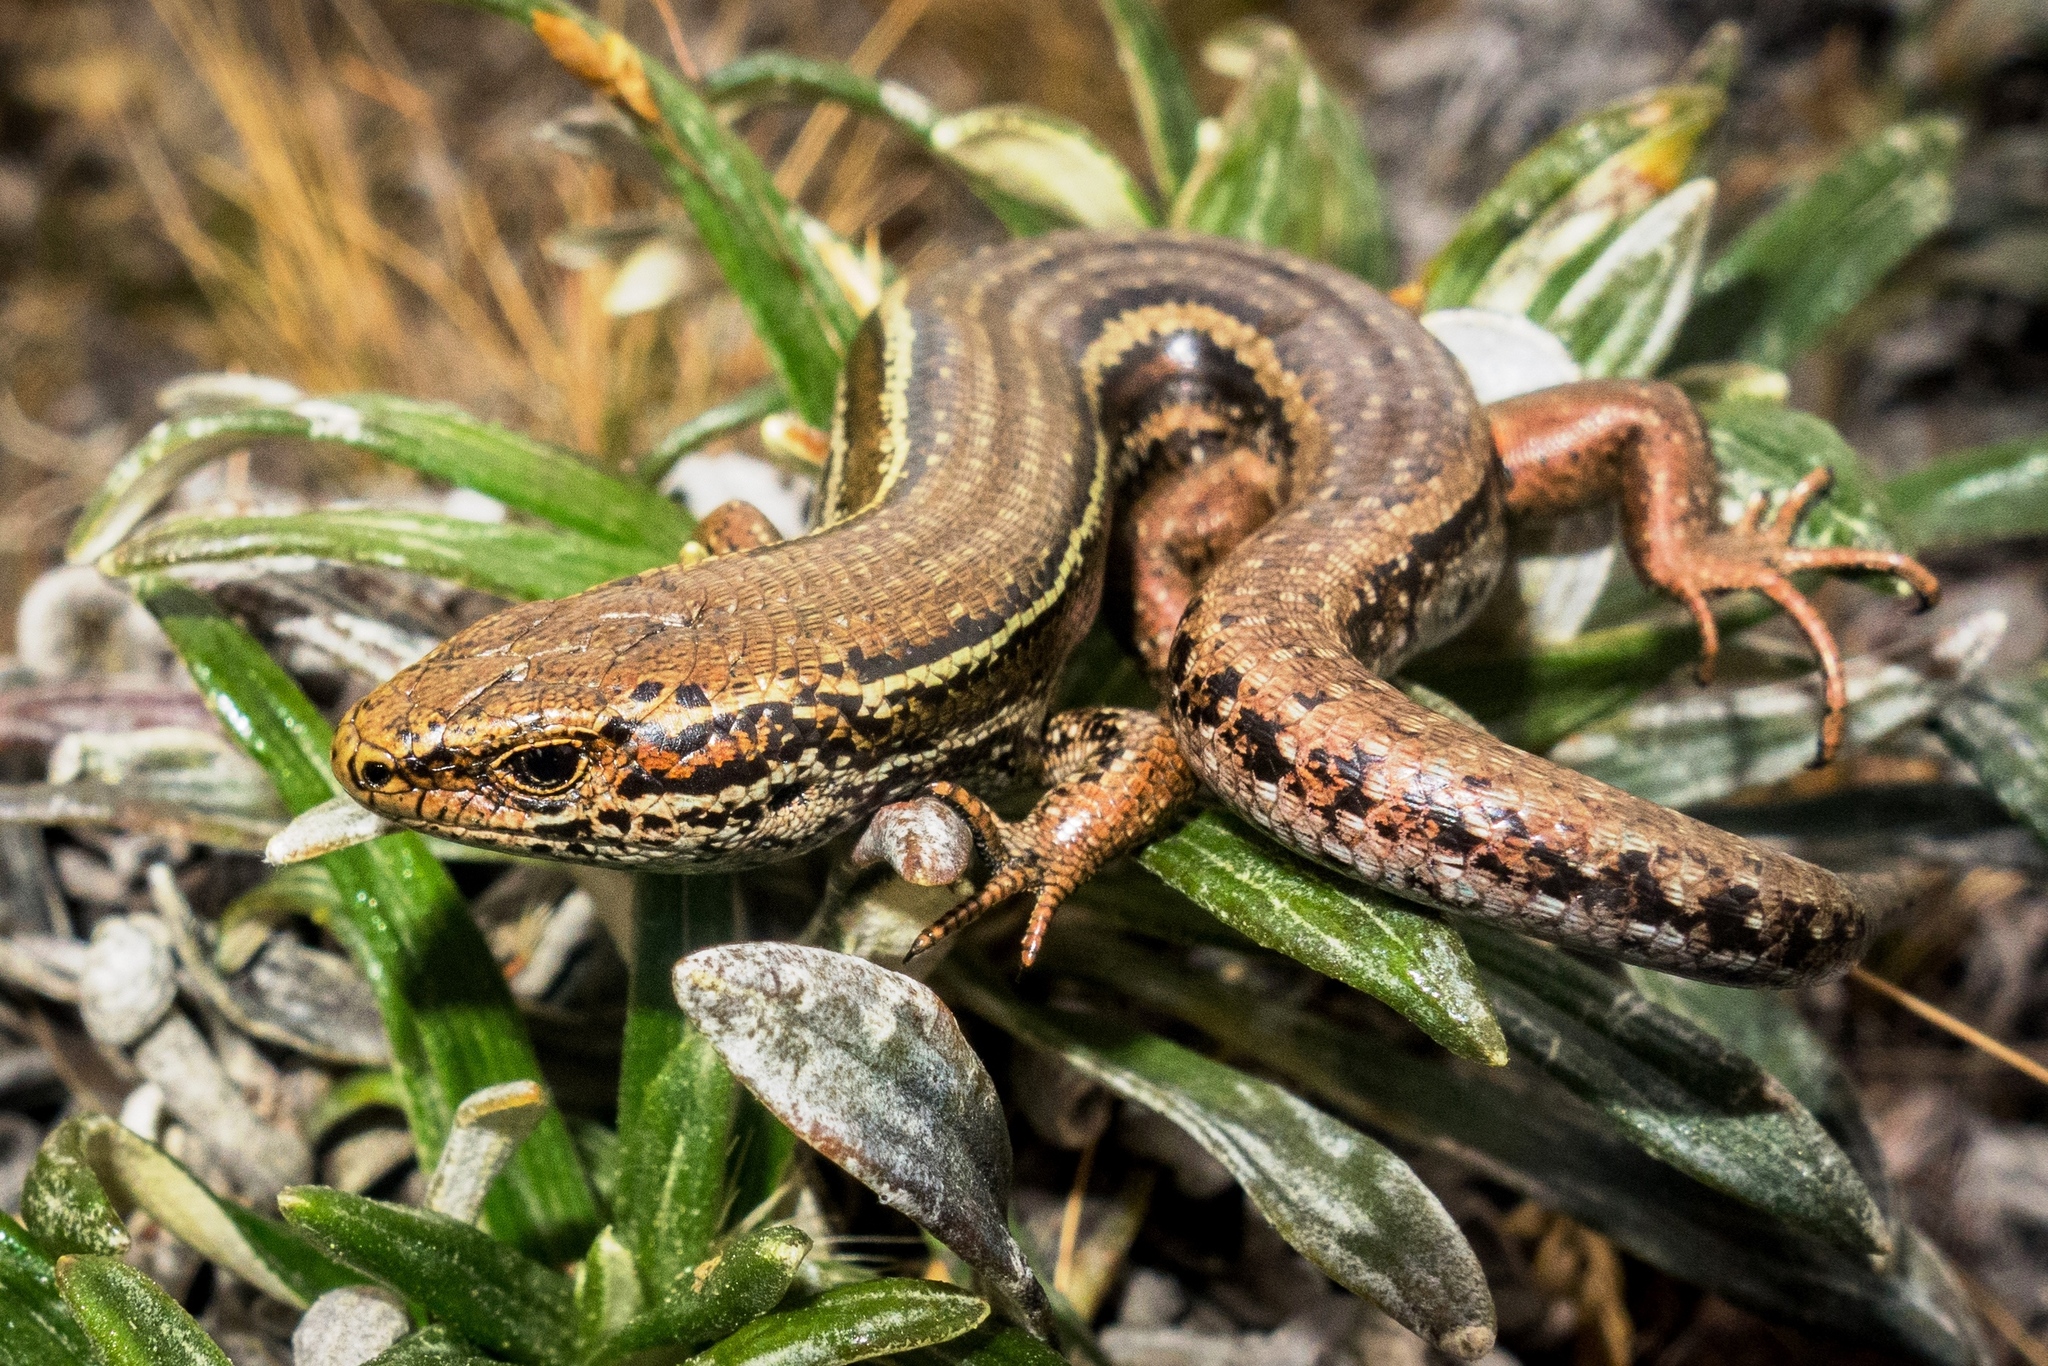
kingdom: Animalia
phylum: Chordata
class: Squamata
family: Scincidae
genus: Oligosoma
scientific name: Oligosoma burganae
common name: Burgan skink
